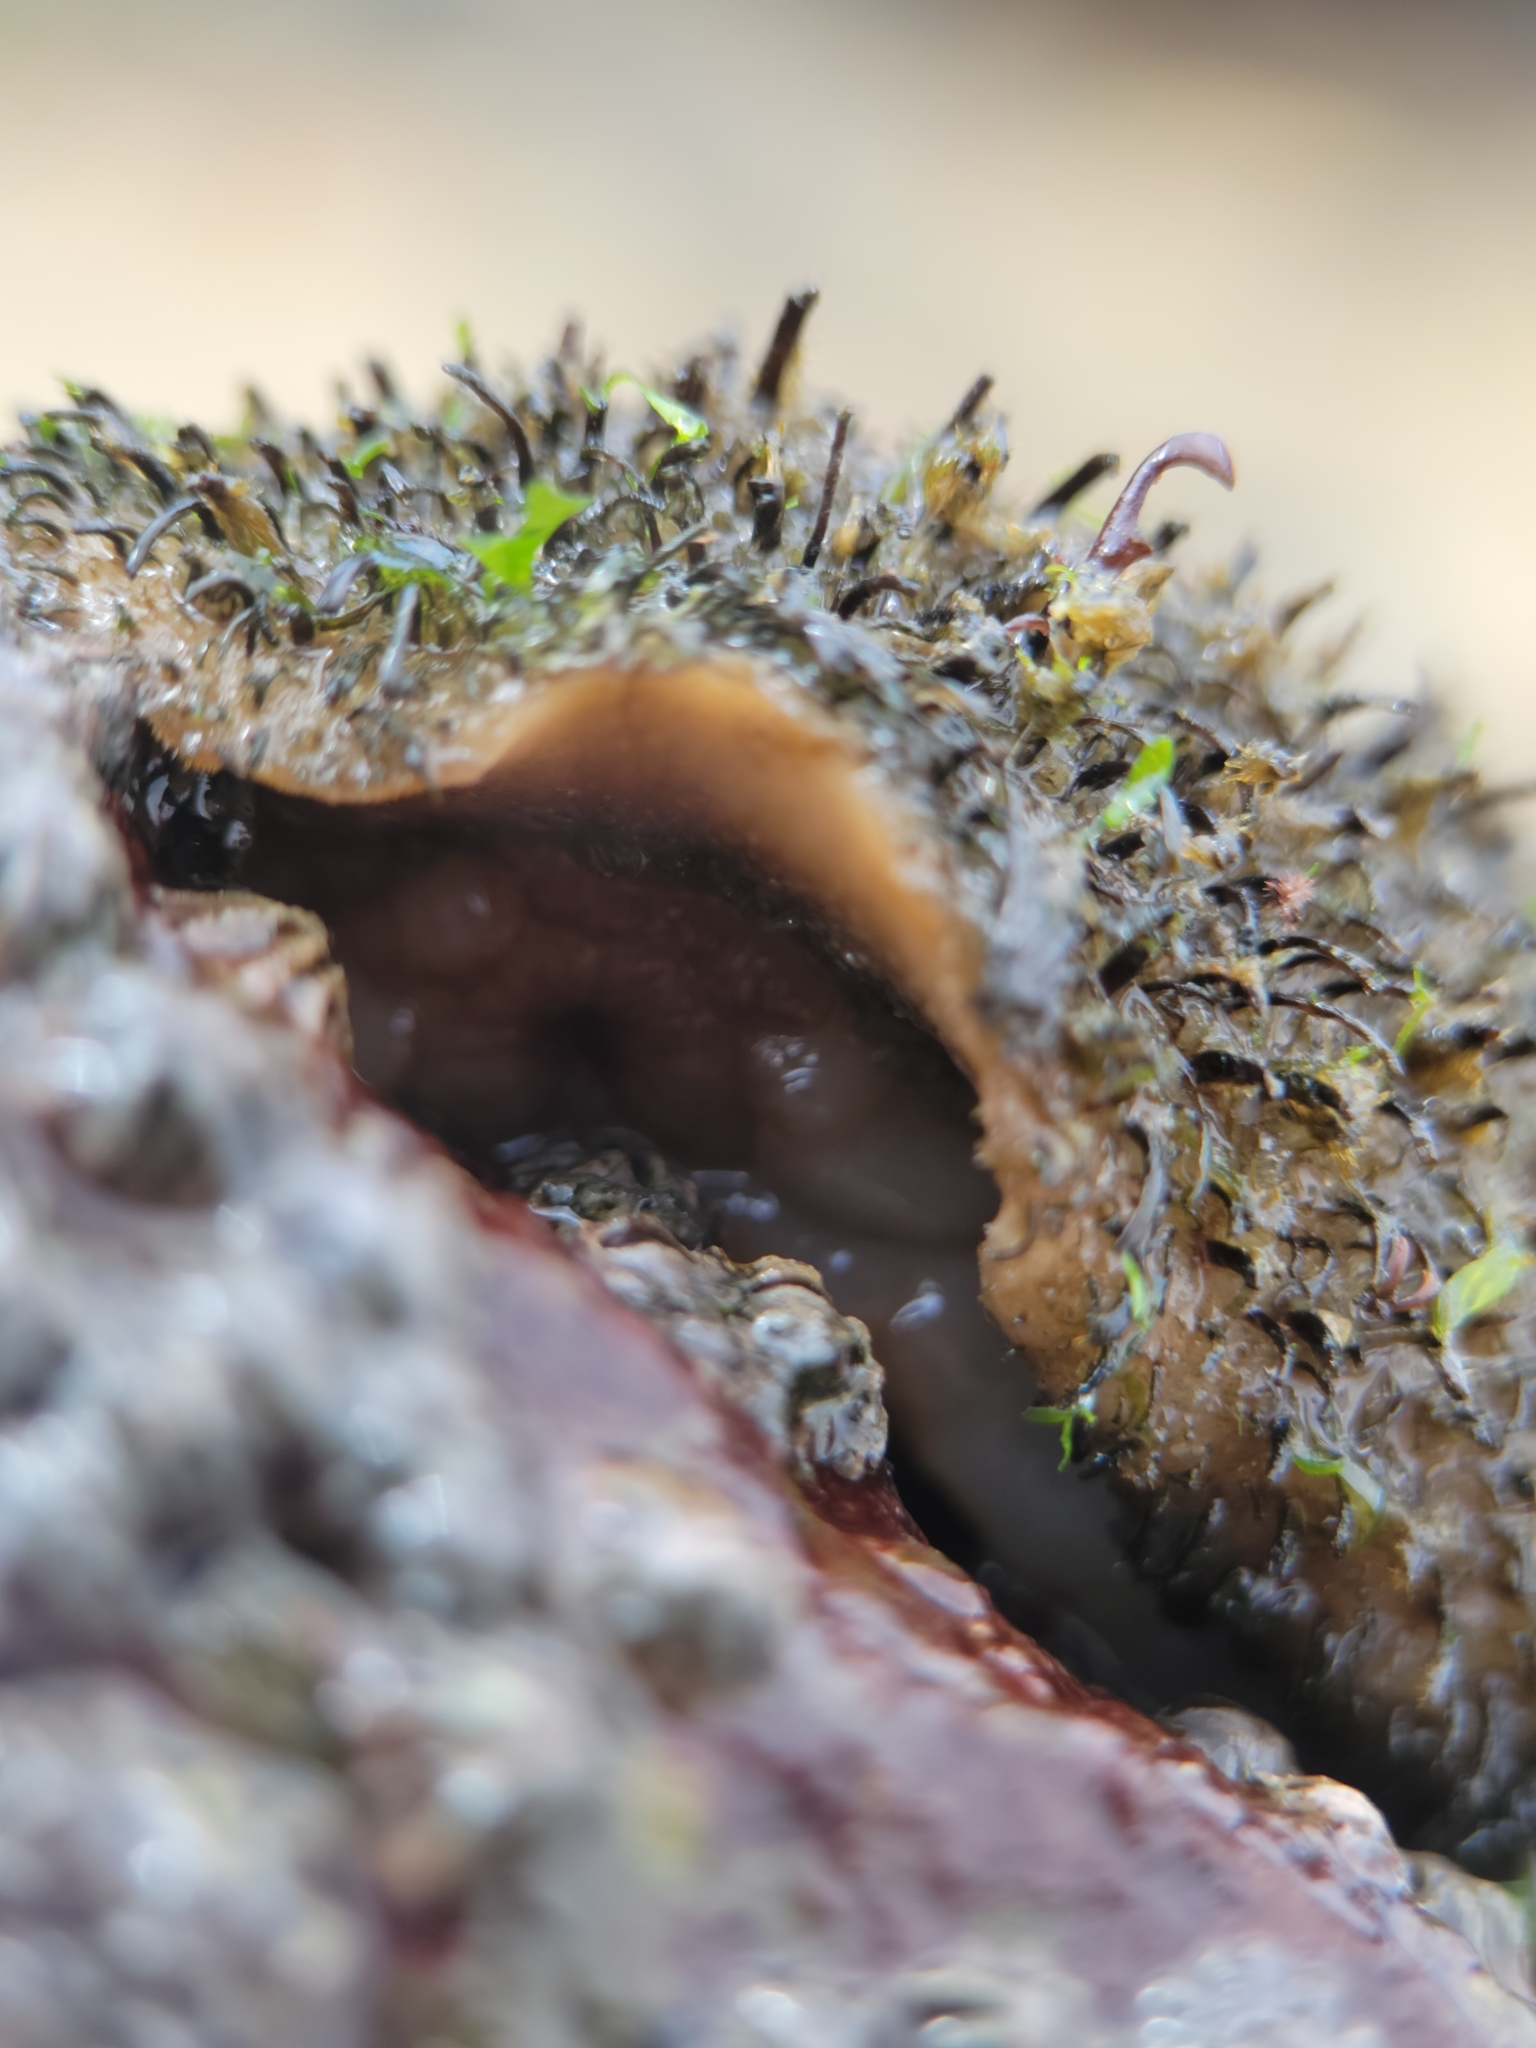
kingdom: Animalia
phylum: Mollusca
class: Polyplacophora
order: Chitonida
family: Mopaliidae
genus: Mopalia
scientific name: Mopalia muscosa
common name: Mossy chiton
